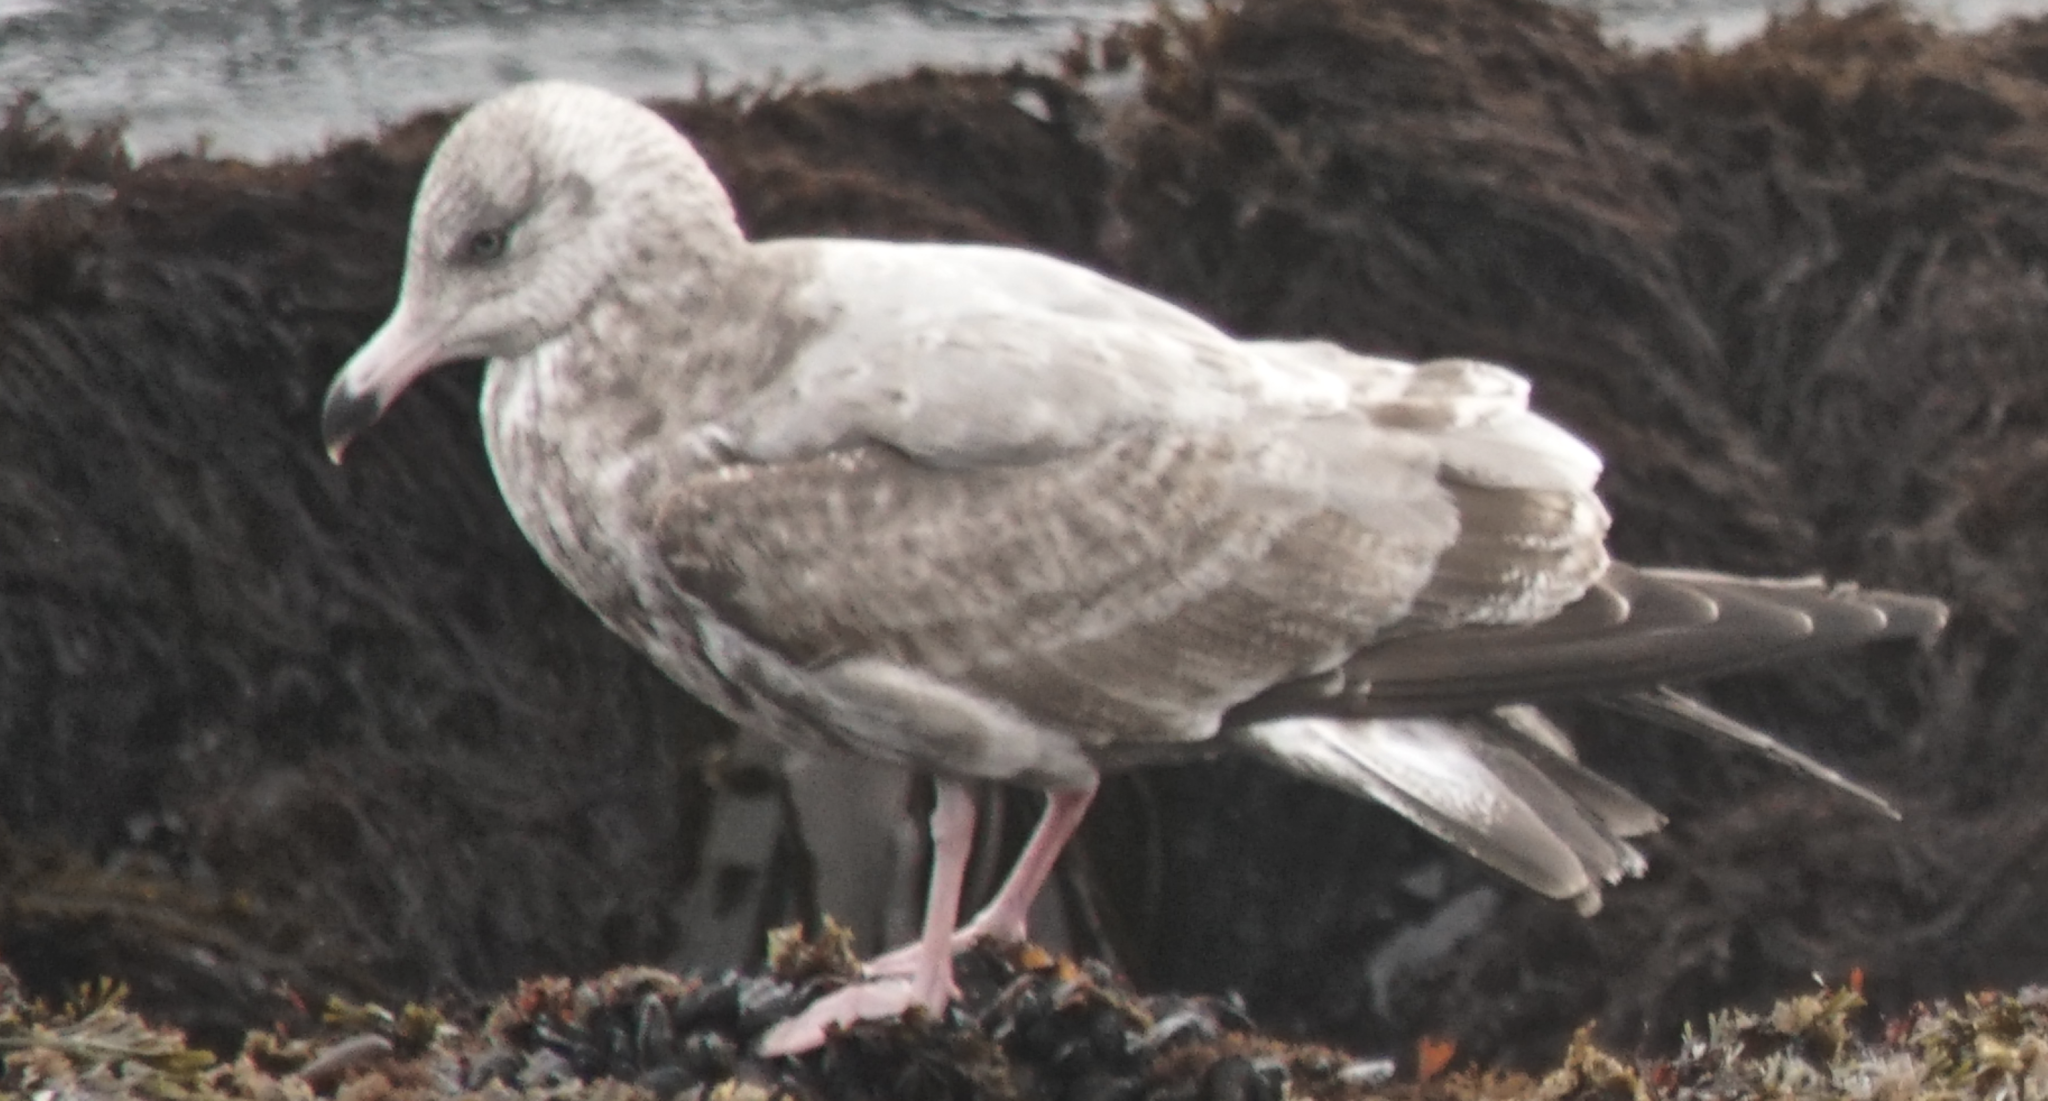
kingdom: Animalia
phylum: Chordata
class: Aves
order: Charadriiformes
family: Laridae
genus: Larus
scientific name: Larus argentatus
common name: Herring gull
